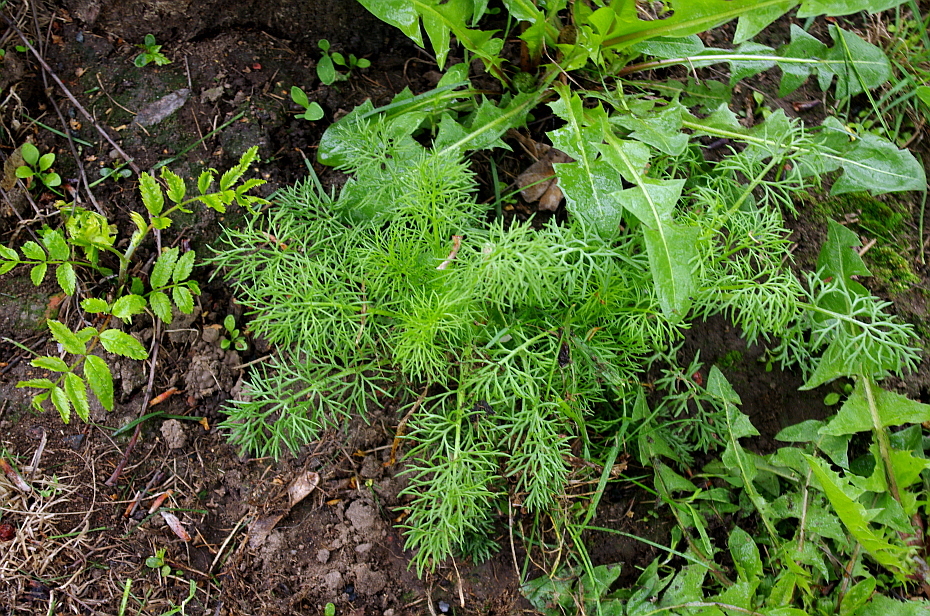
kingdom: Plantae
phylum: Tracheophyta
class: Magnoliopsida
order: Asterales
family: Asteraceae
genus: Tripleurospermum
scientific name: Tripleurospermum inodorum
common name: Scentless mayweed
